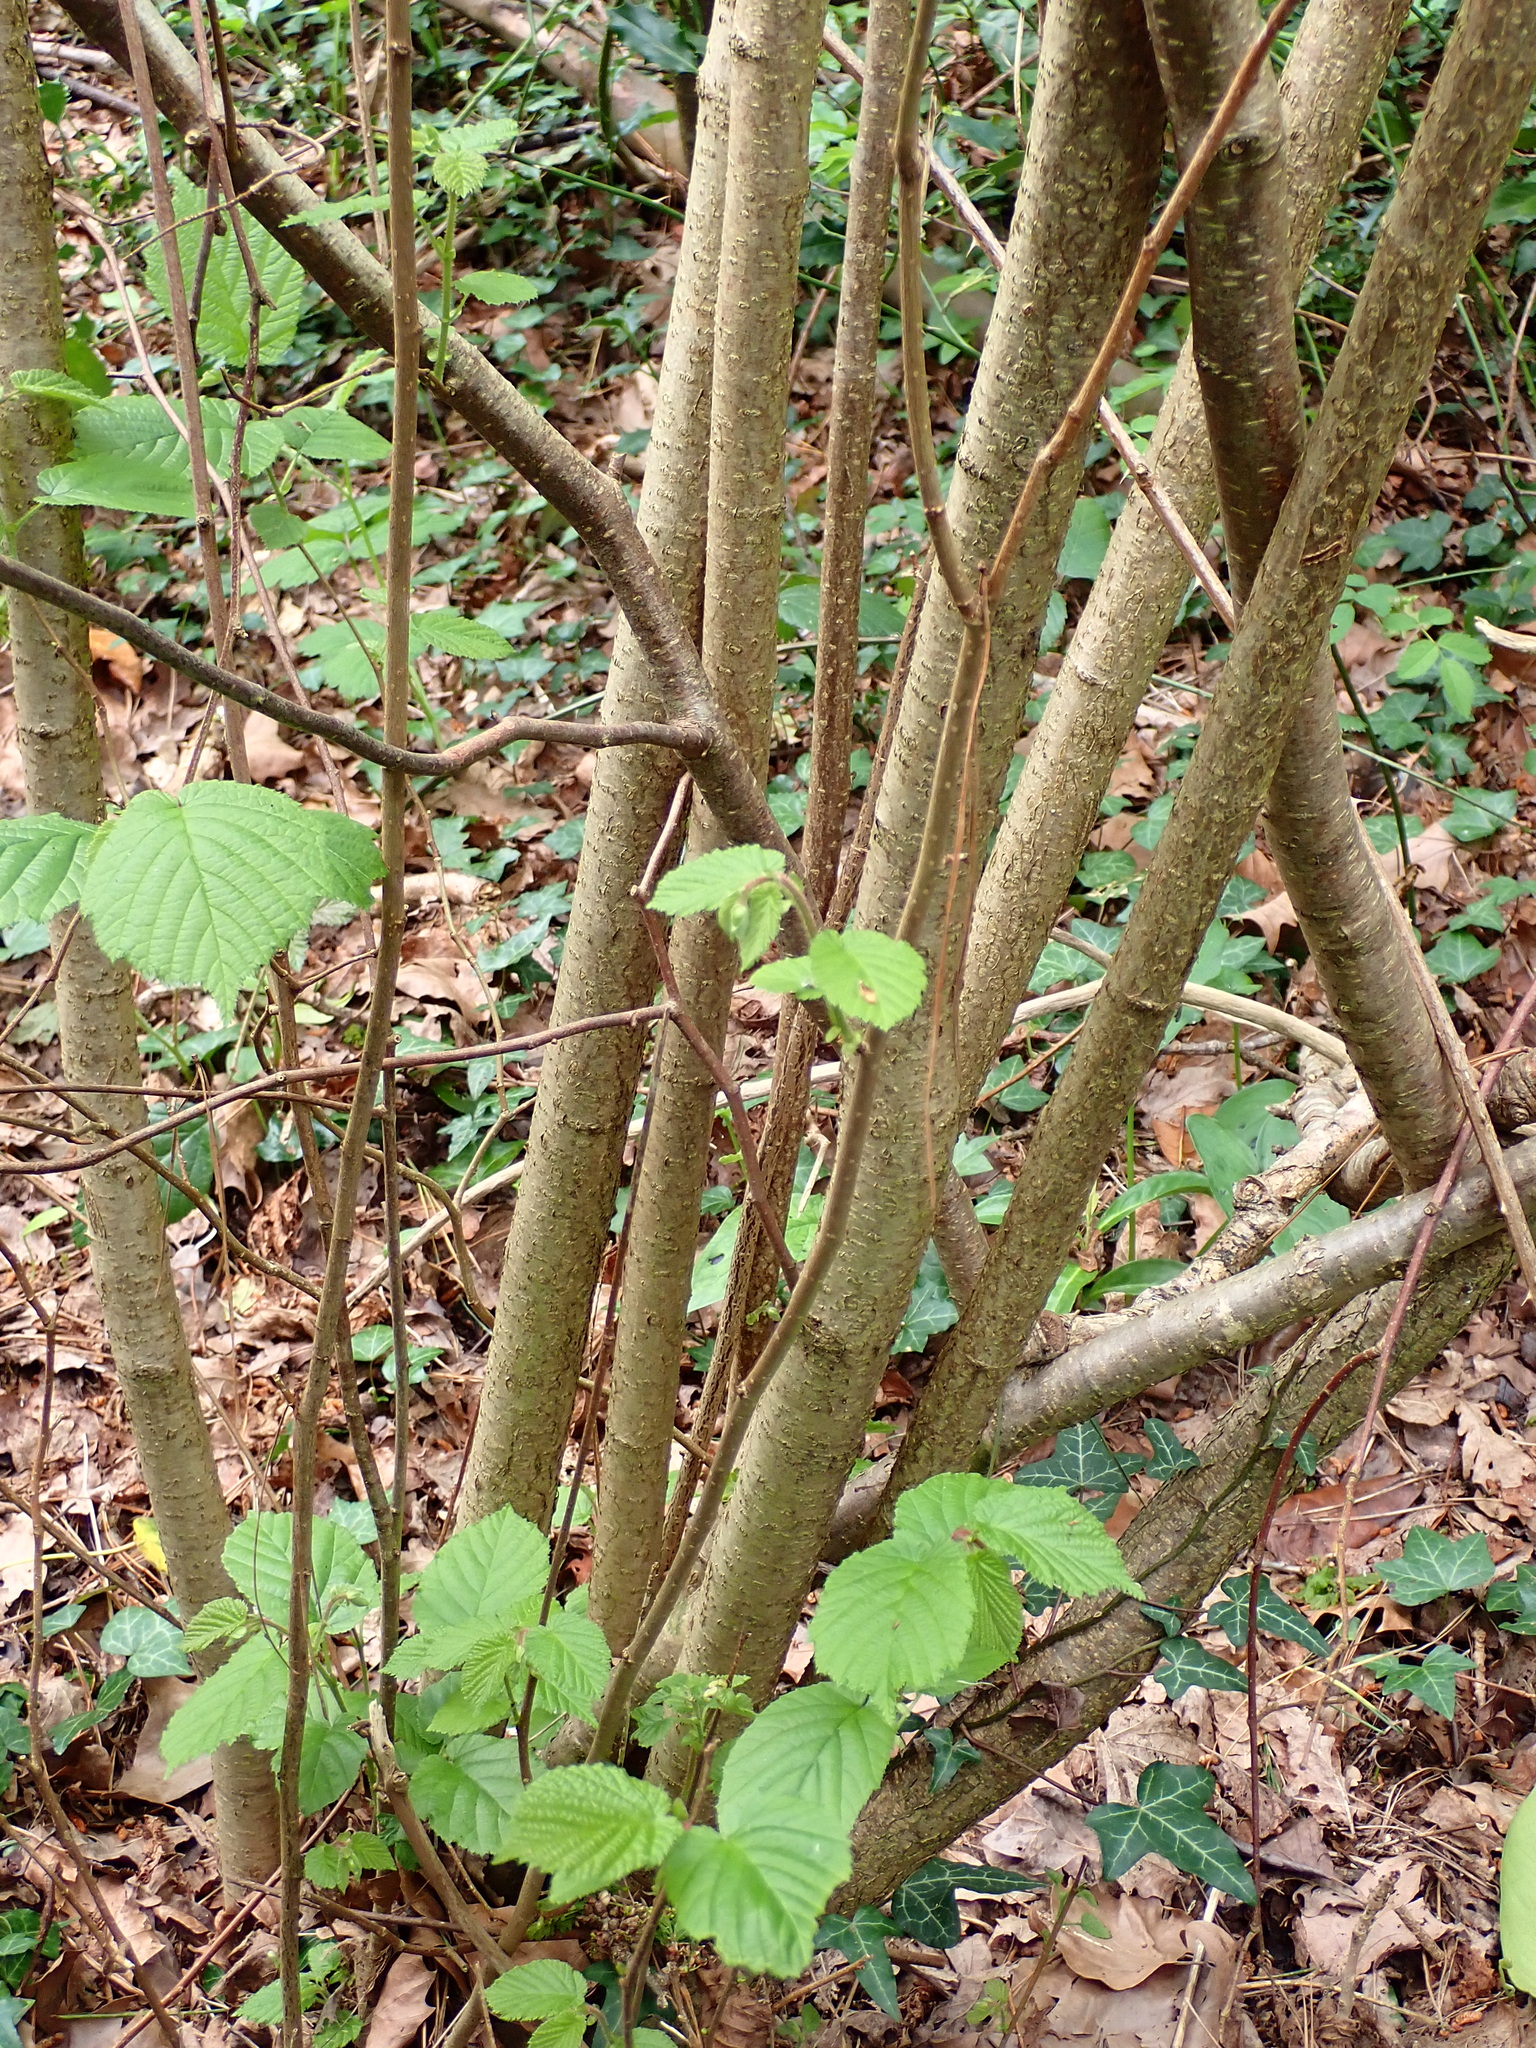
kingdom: Plantae
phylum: Tracheophyta
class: Magnoliopsida
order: Fagales
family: Betulaceae
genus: Corylus
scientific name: Corylus avellana
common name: European hazel
